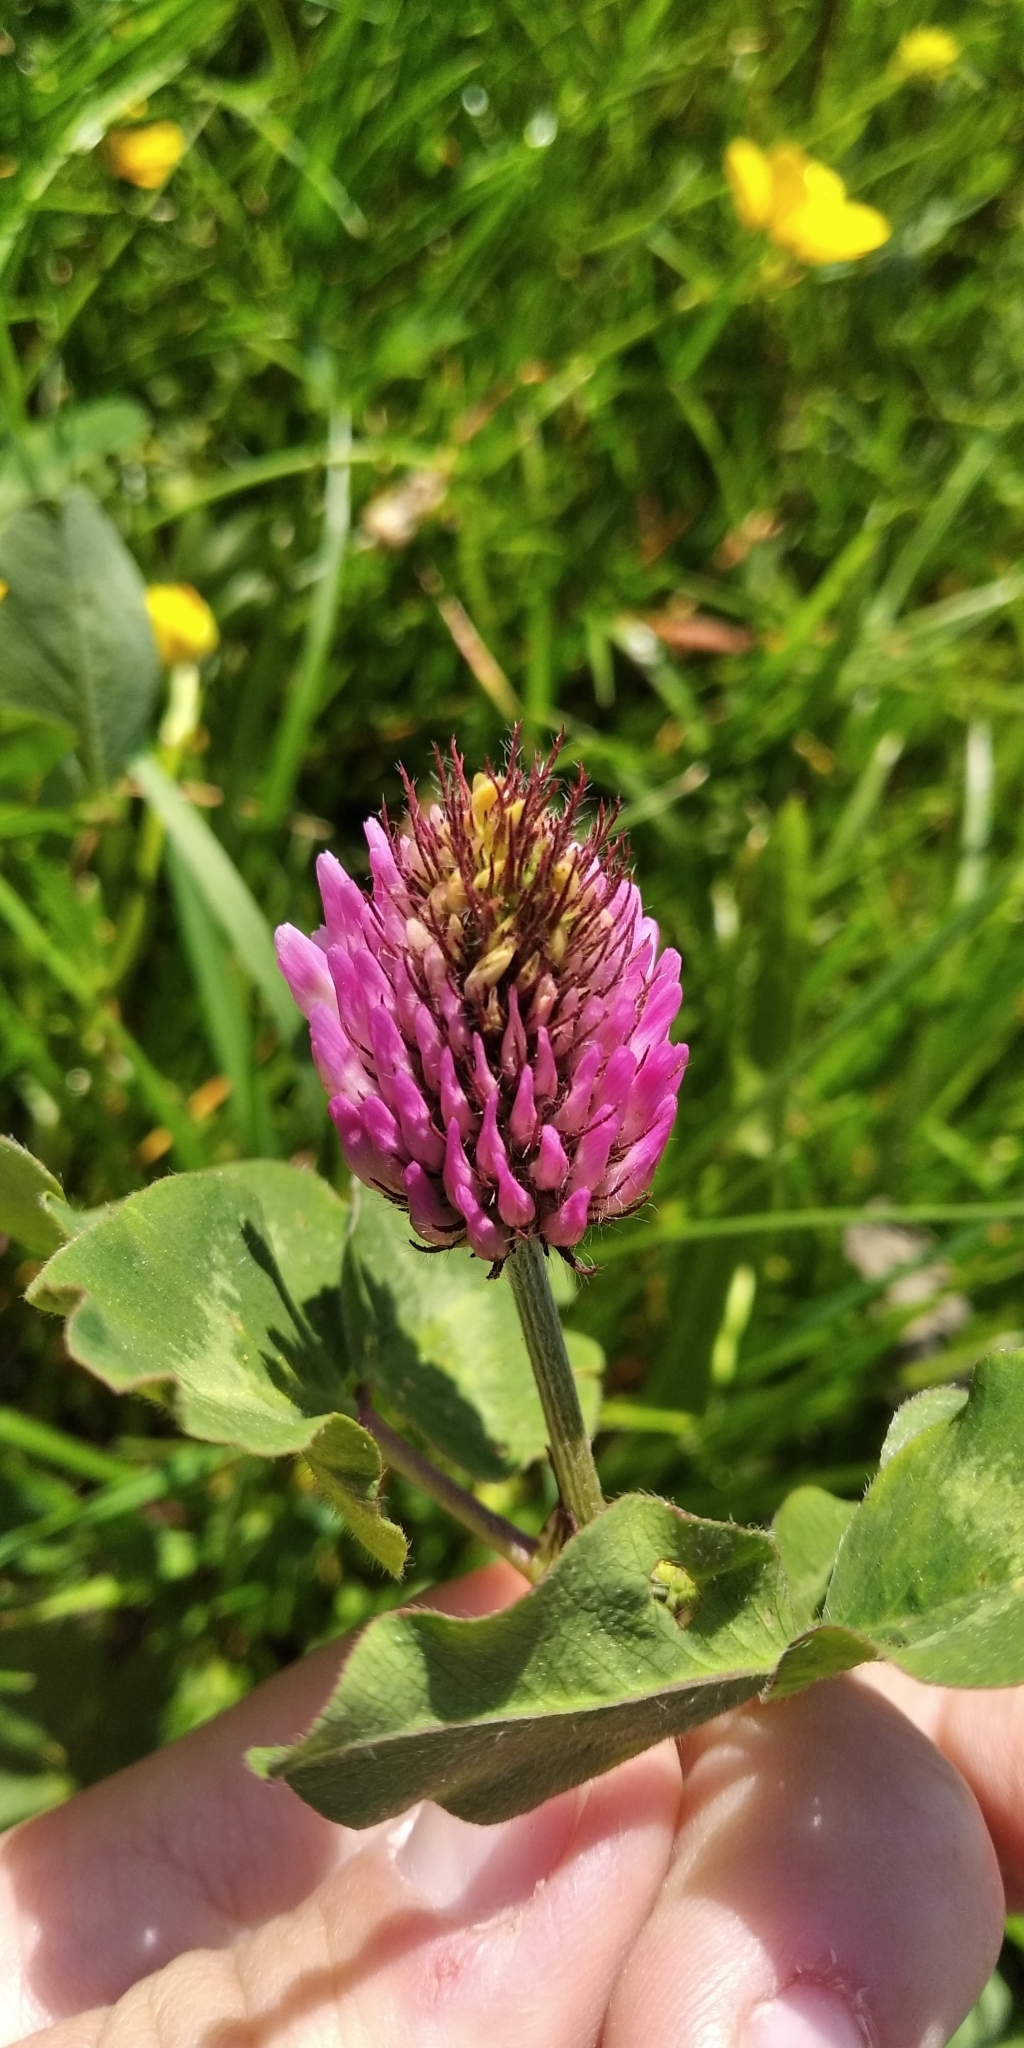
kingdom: Plantae
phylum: Tracheophyta
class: Magnoliopsida
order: Fabales
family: Fabaceae
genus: Trifolium
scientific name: Trifolium pratense
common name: Red clover
